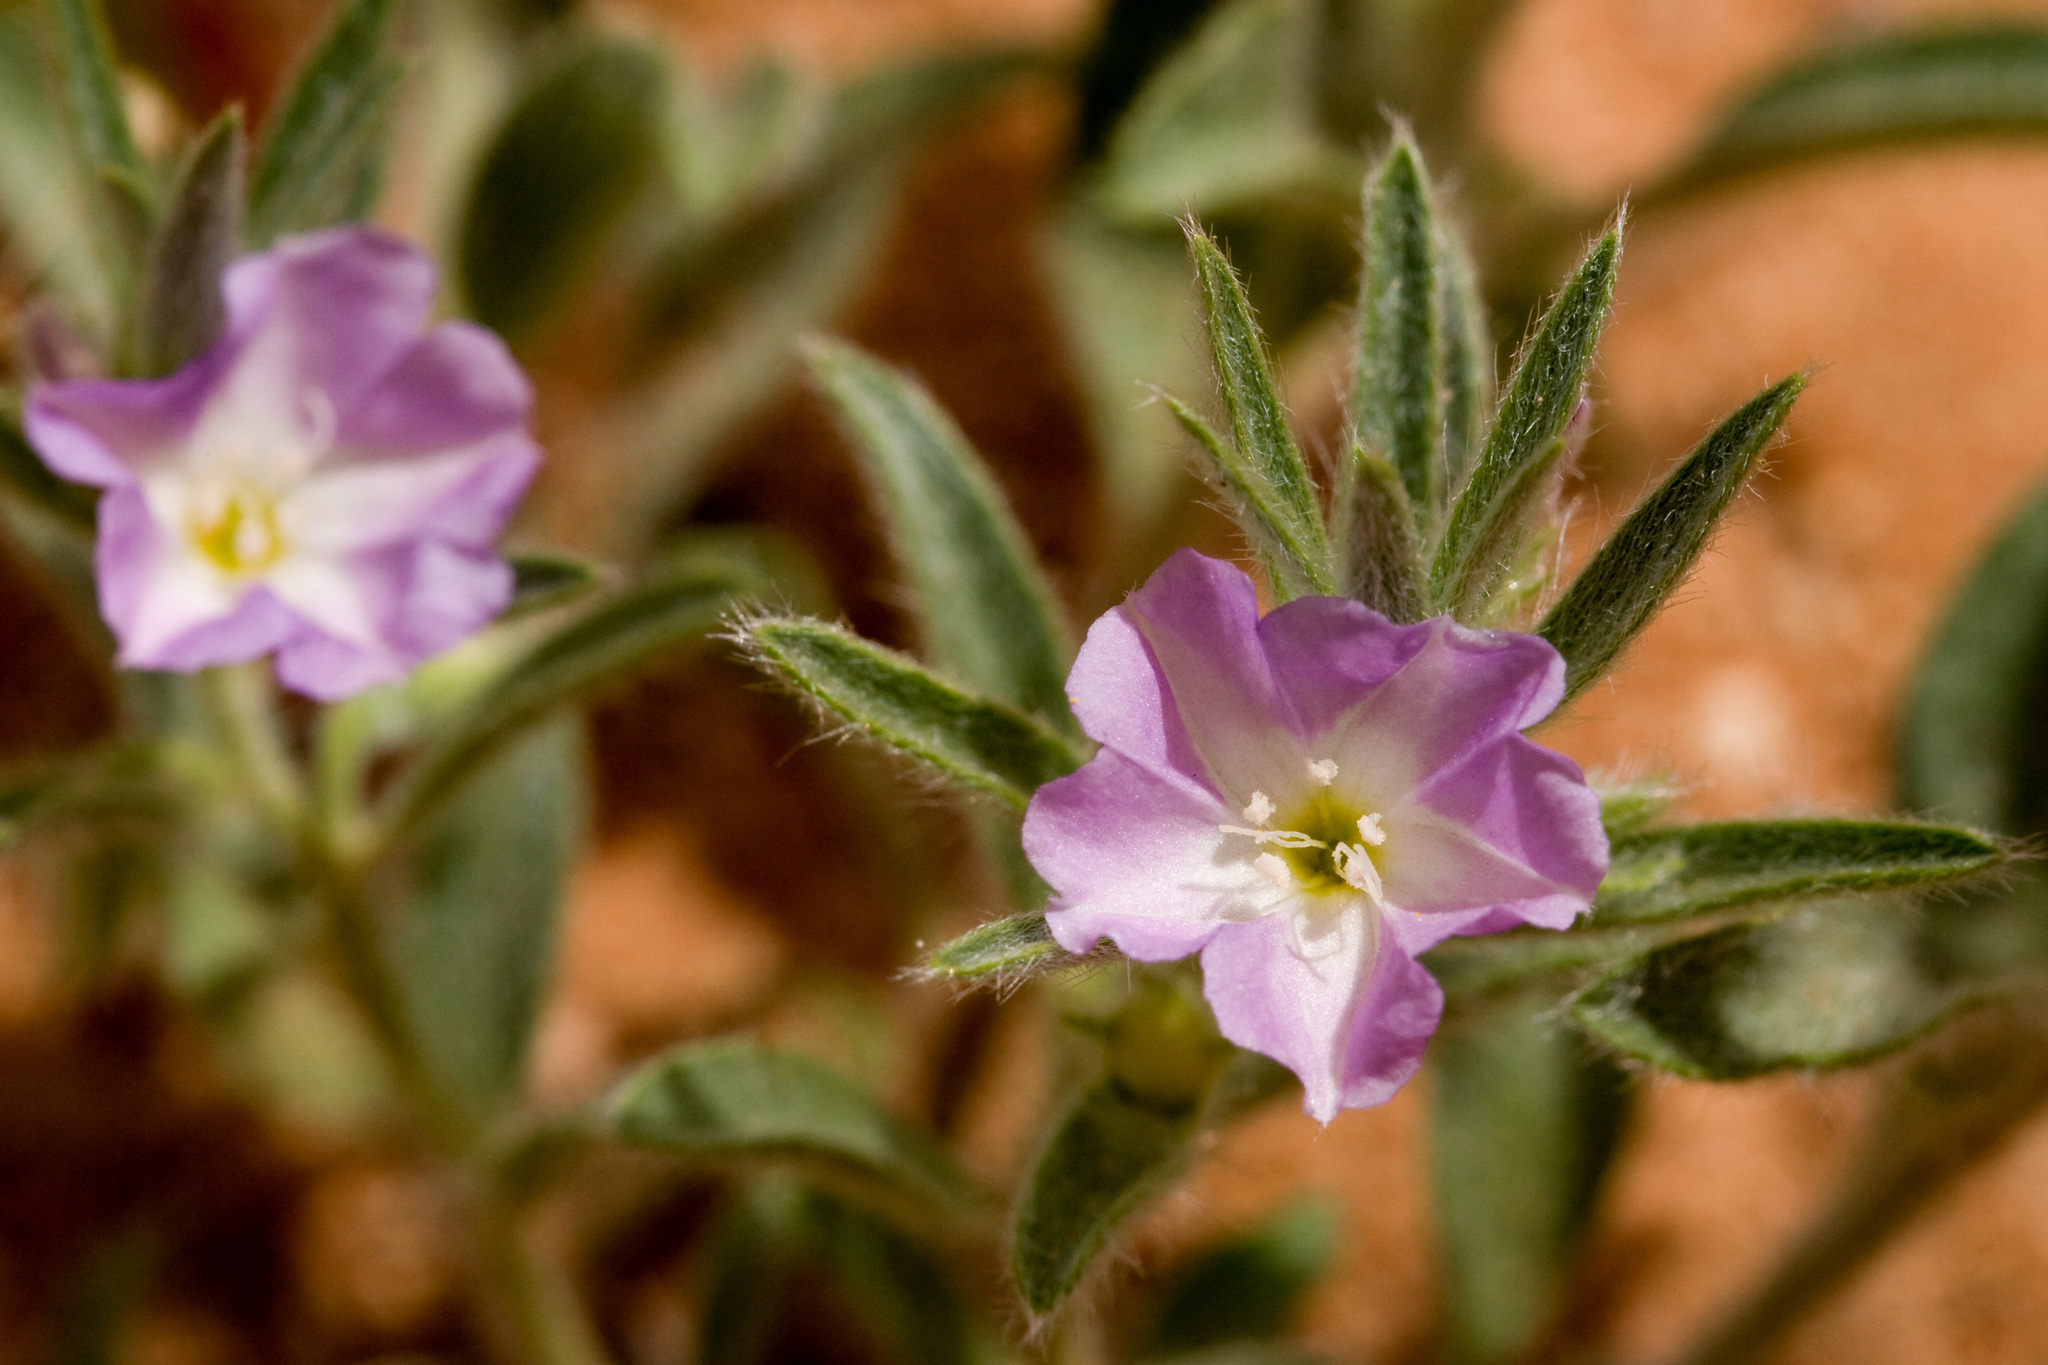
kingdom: Plantae
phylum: Tracheophyta
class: Magnoliopsida
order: Solanales
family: Convolvulaceae
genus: Evolvulus
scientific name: Evolvulus nuttallianus
